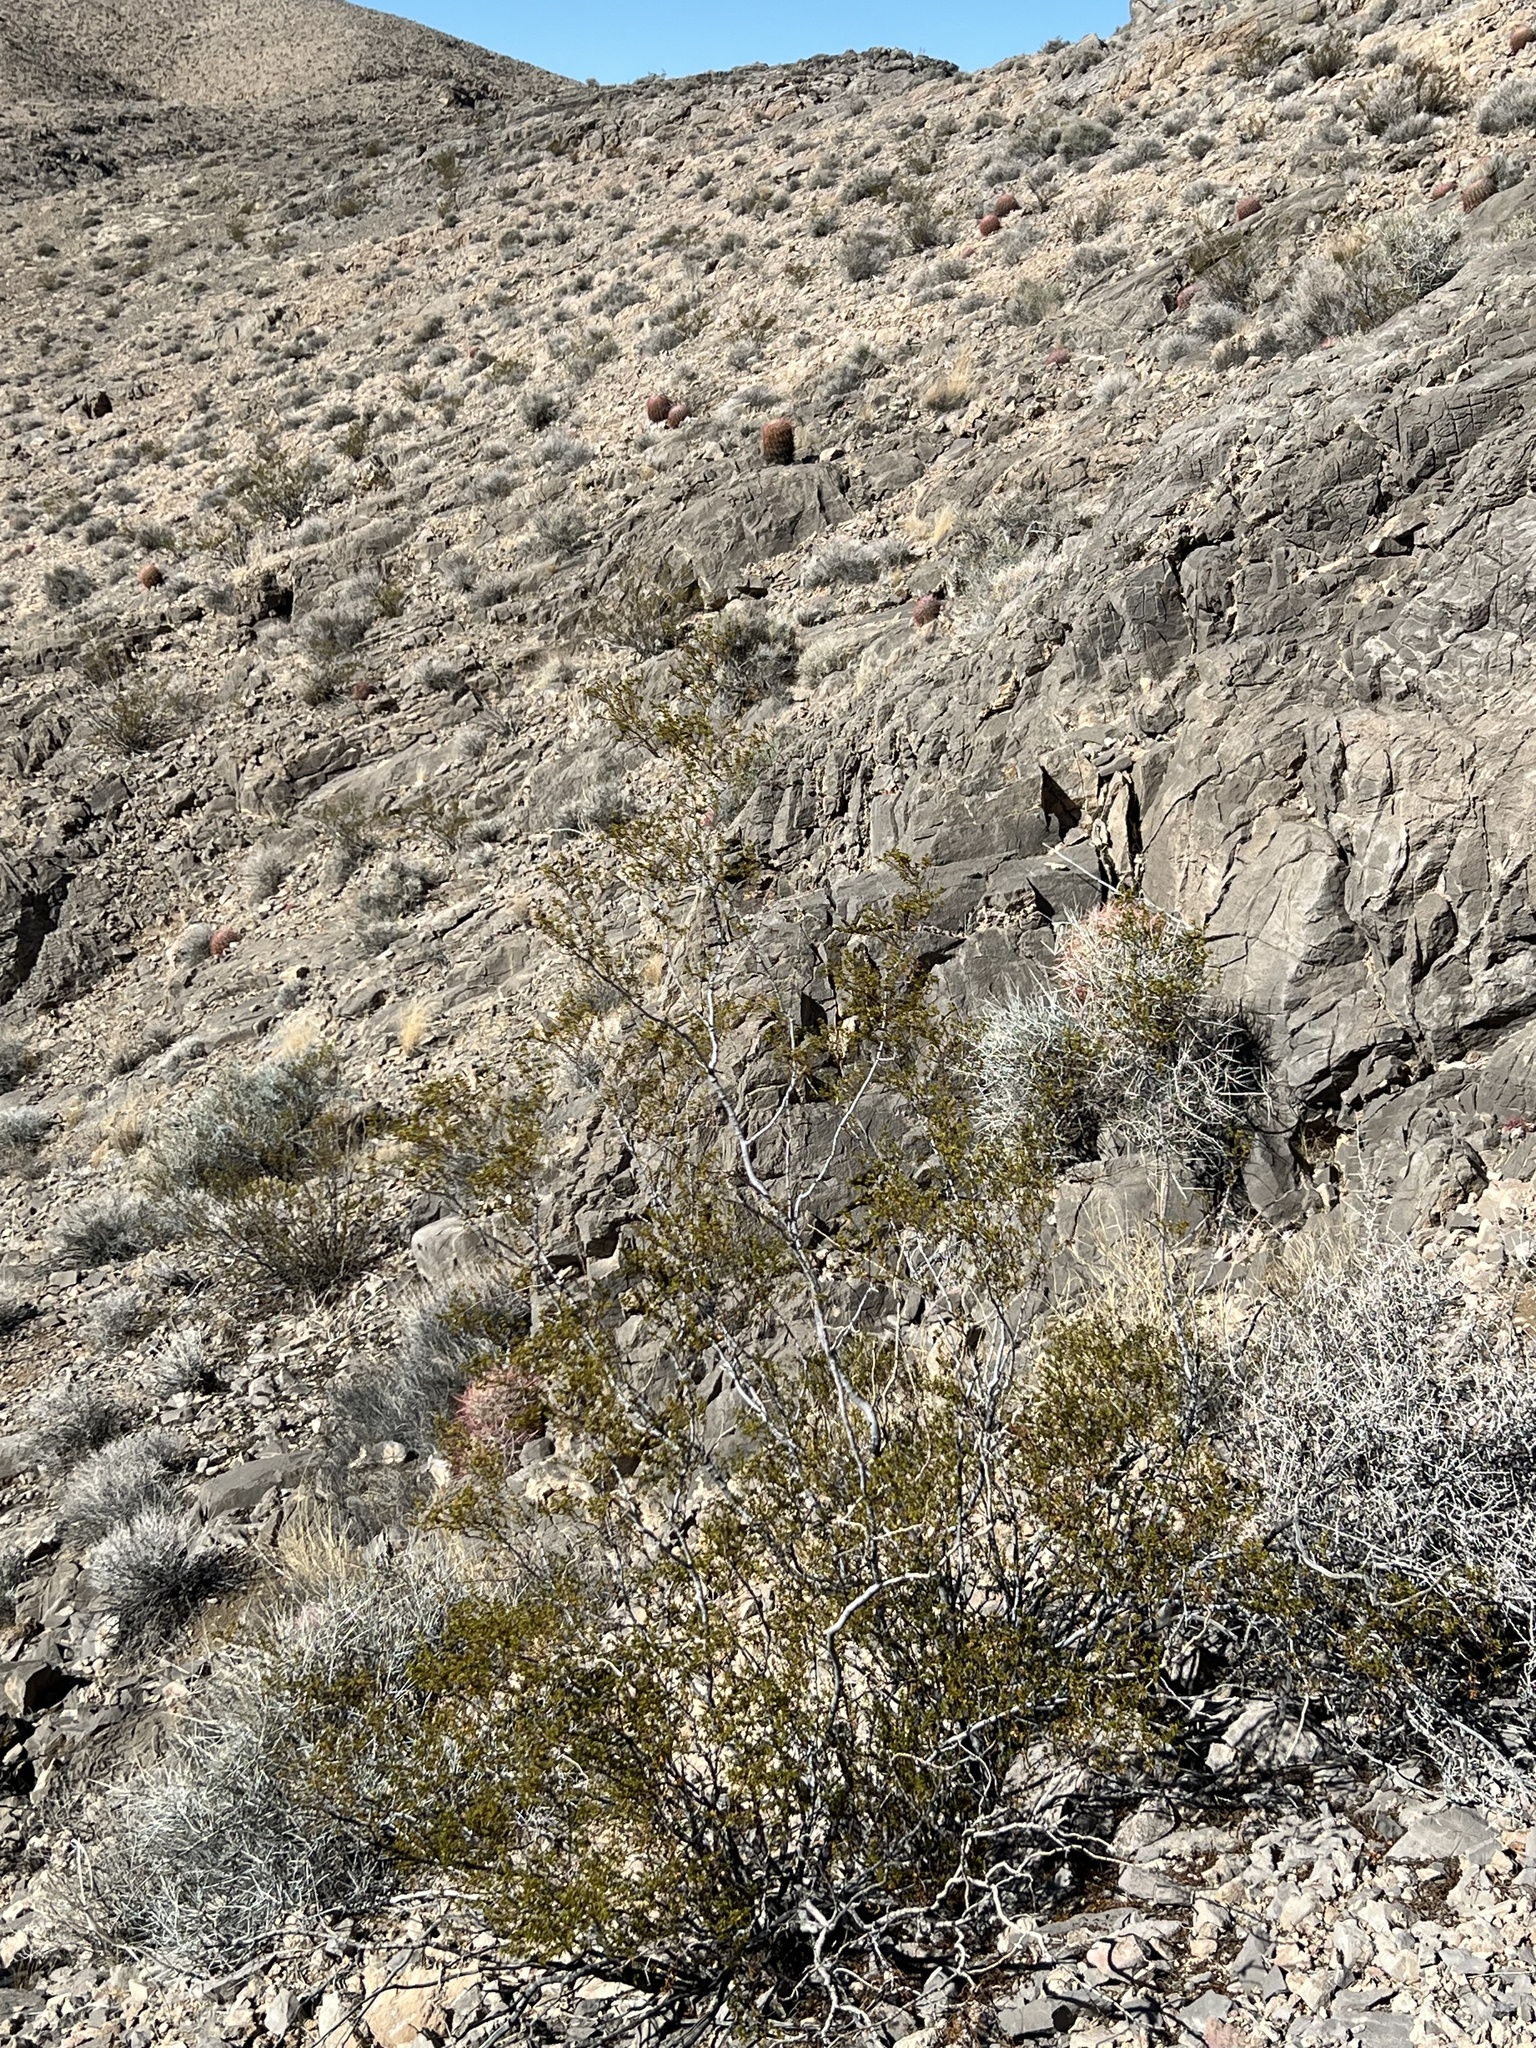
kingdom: Plantae
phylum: Tracheophyta
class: Magnoliopsida
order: Zygophyllales
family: Zygophyllaceae
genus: Larrea
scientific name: Larrea tridentata
